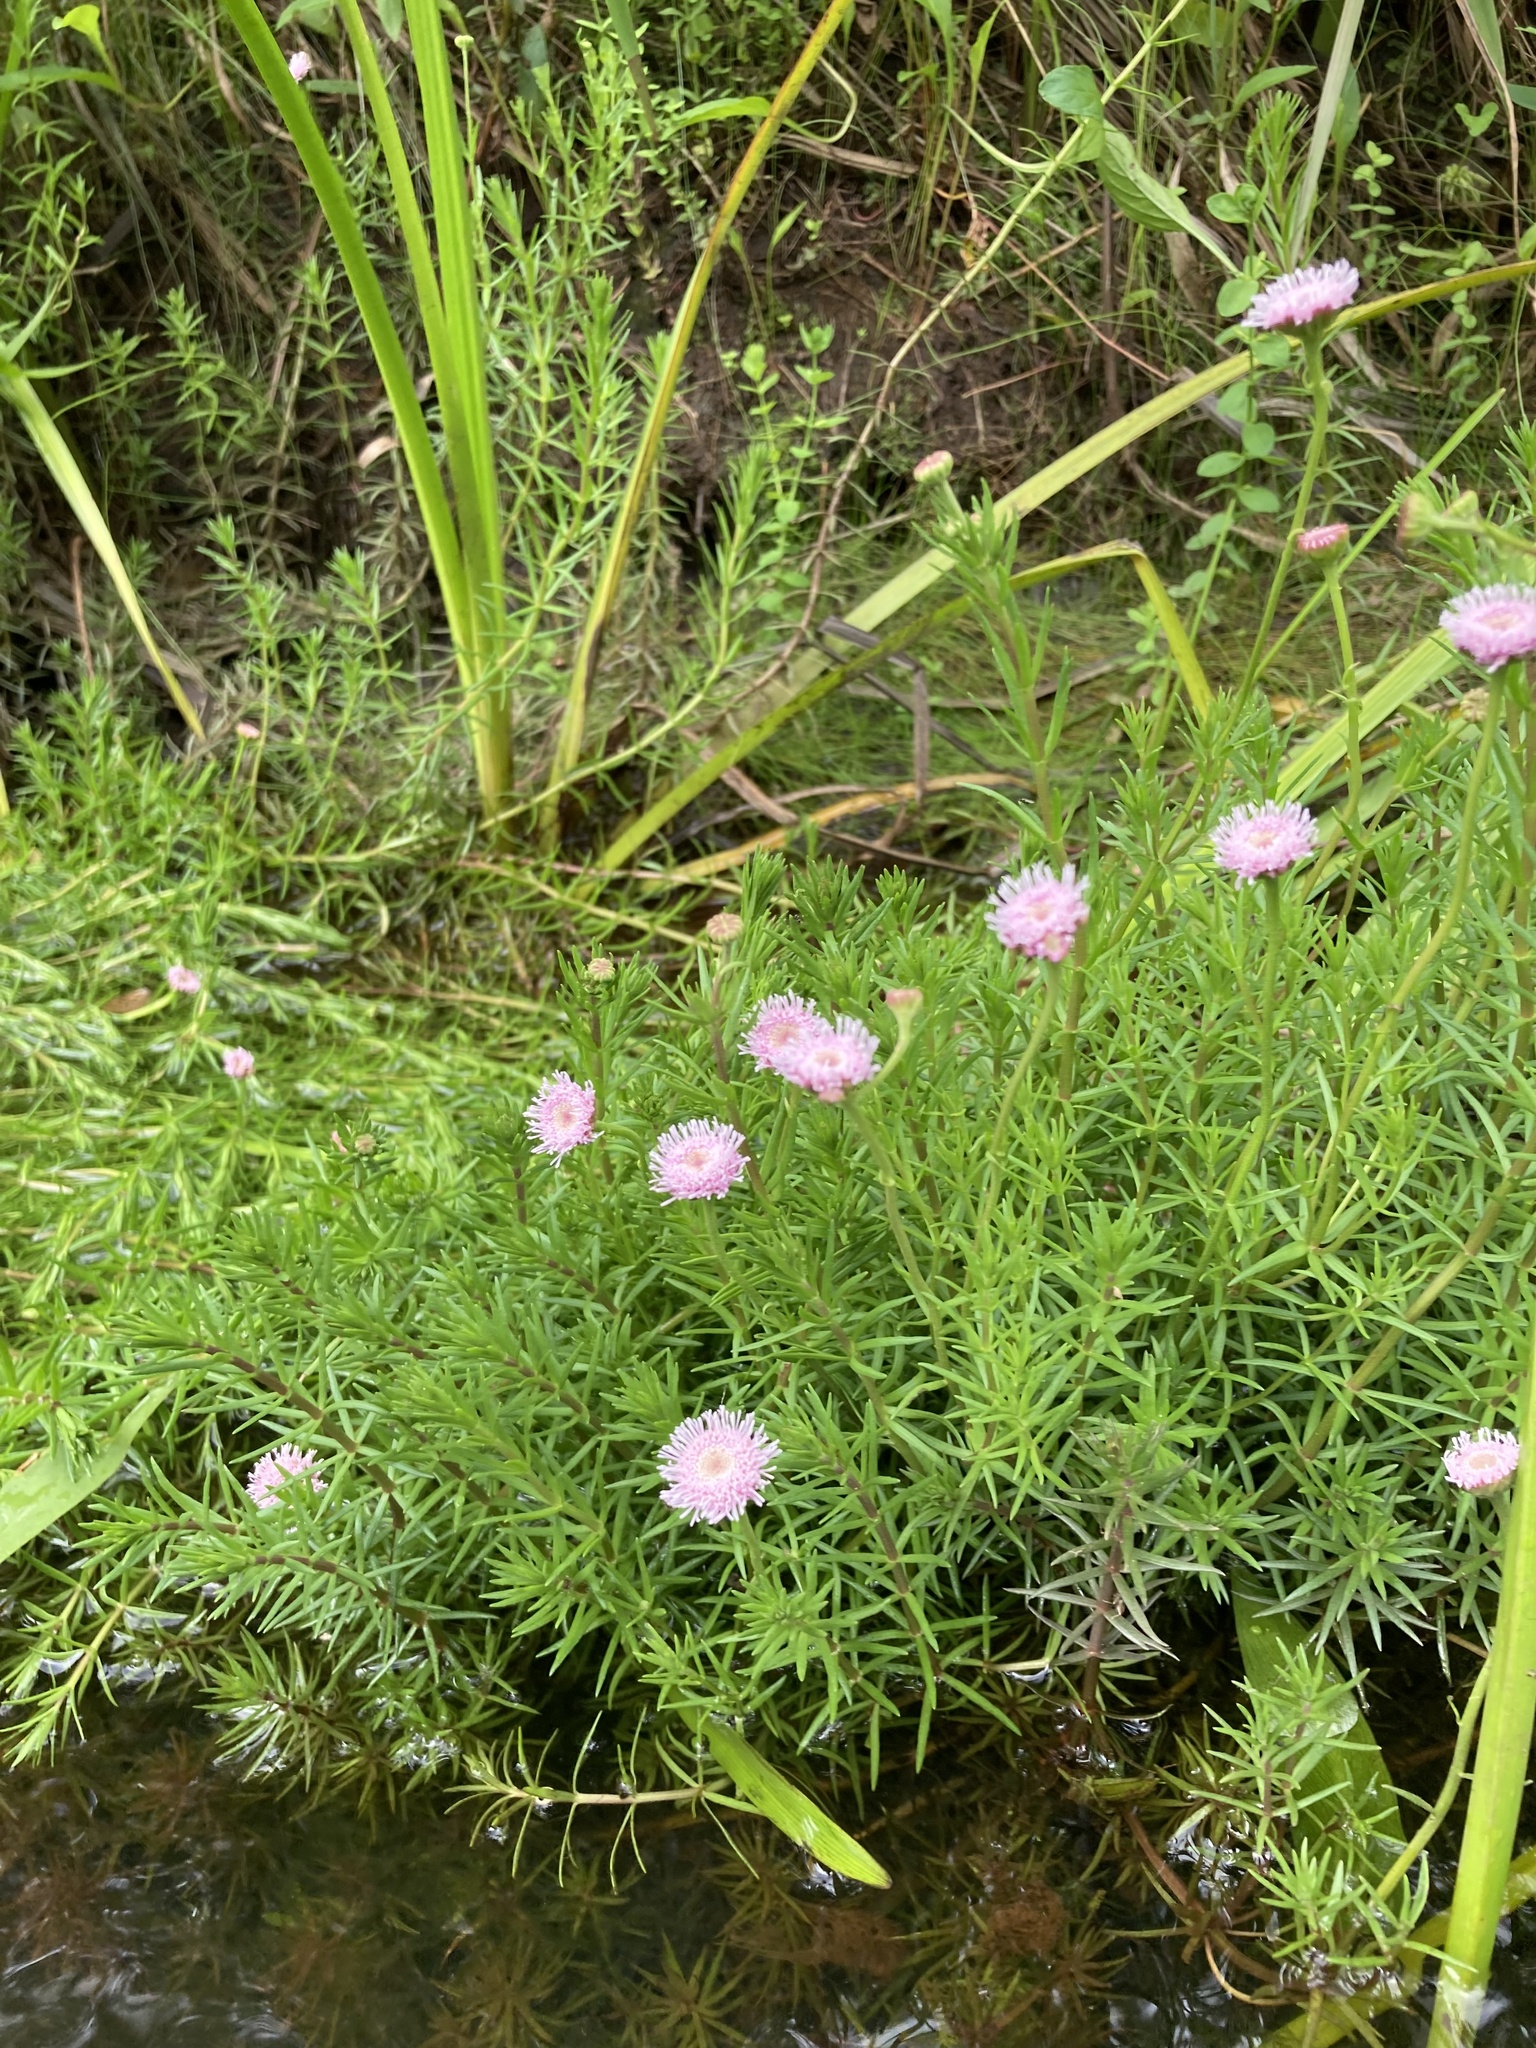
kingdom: Plantae
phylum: Tracheophyta
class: Magnoliopsida
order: Asterales
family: Asteraceae
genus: Sclerolepis
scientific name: Sclerolepis uniflora
